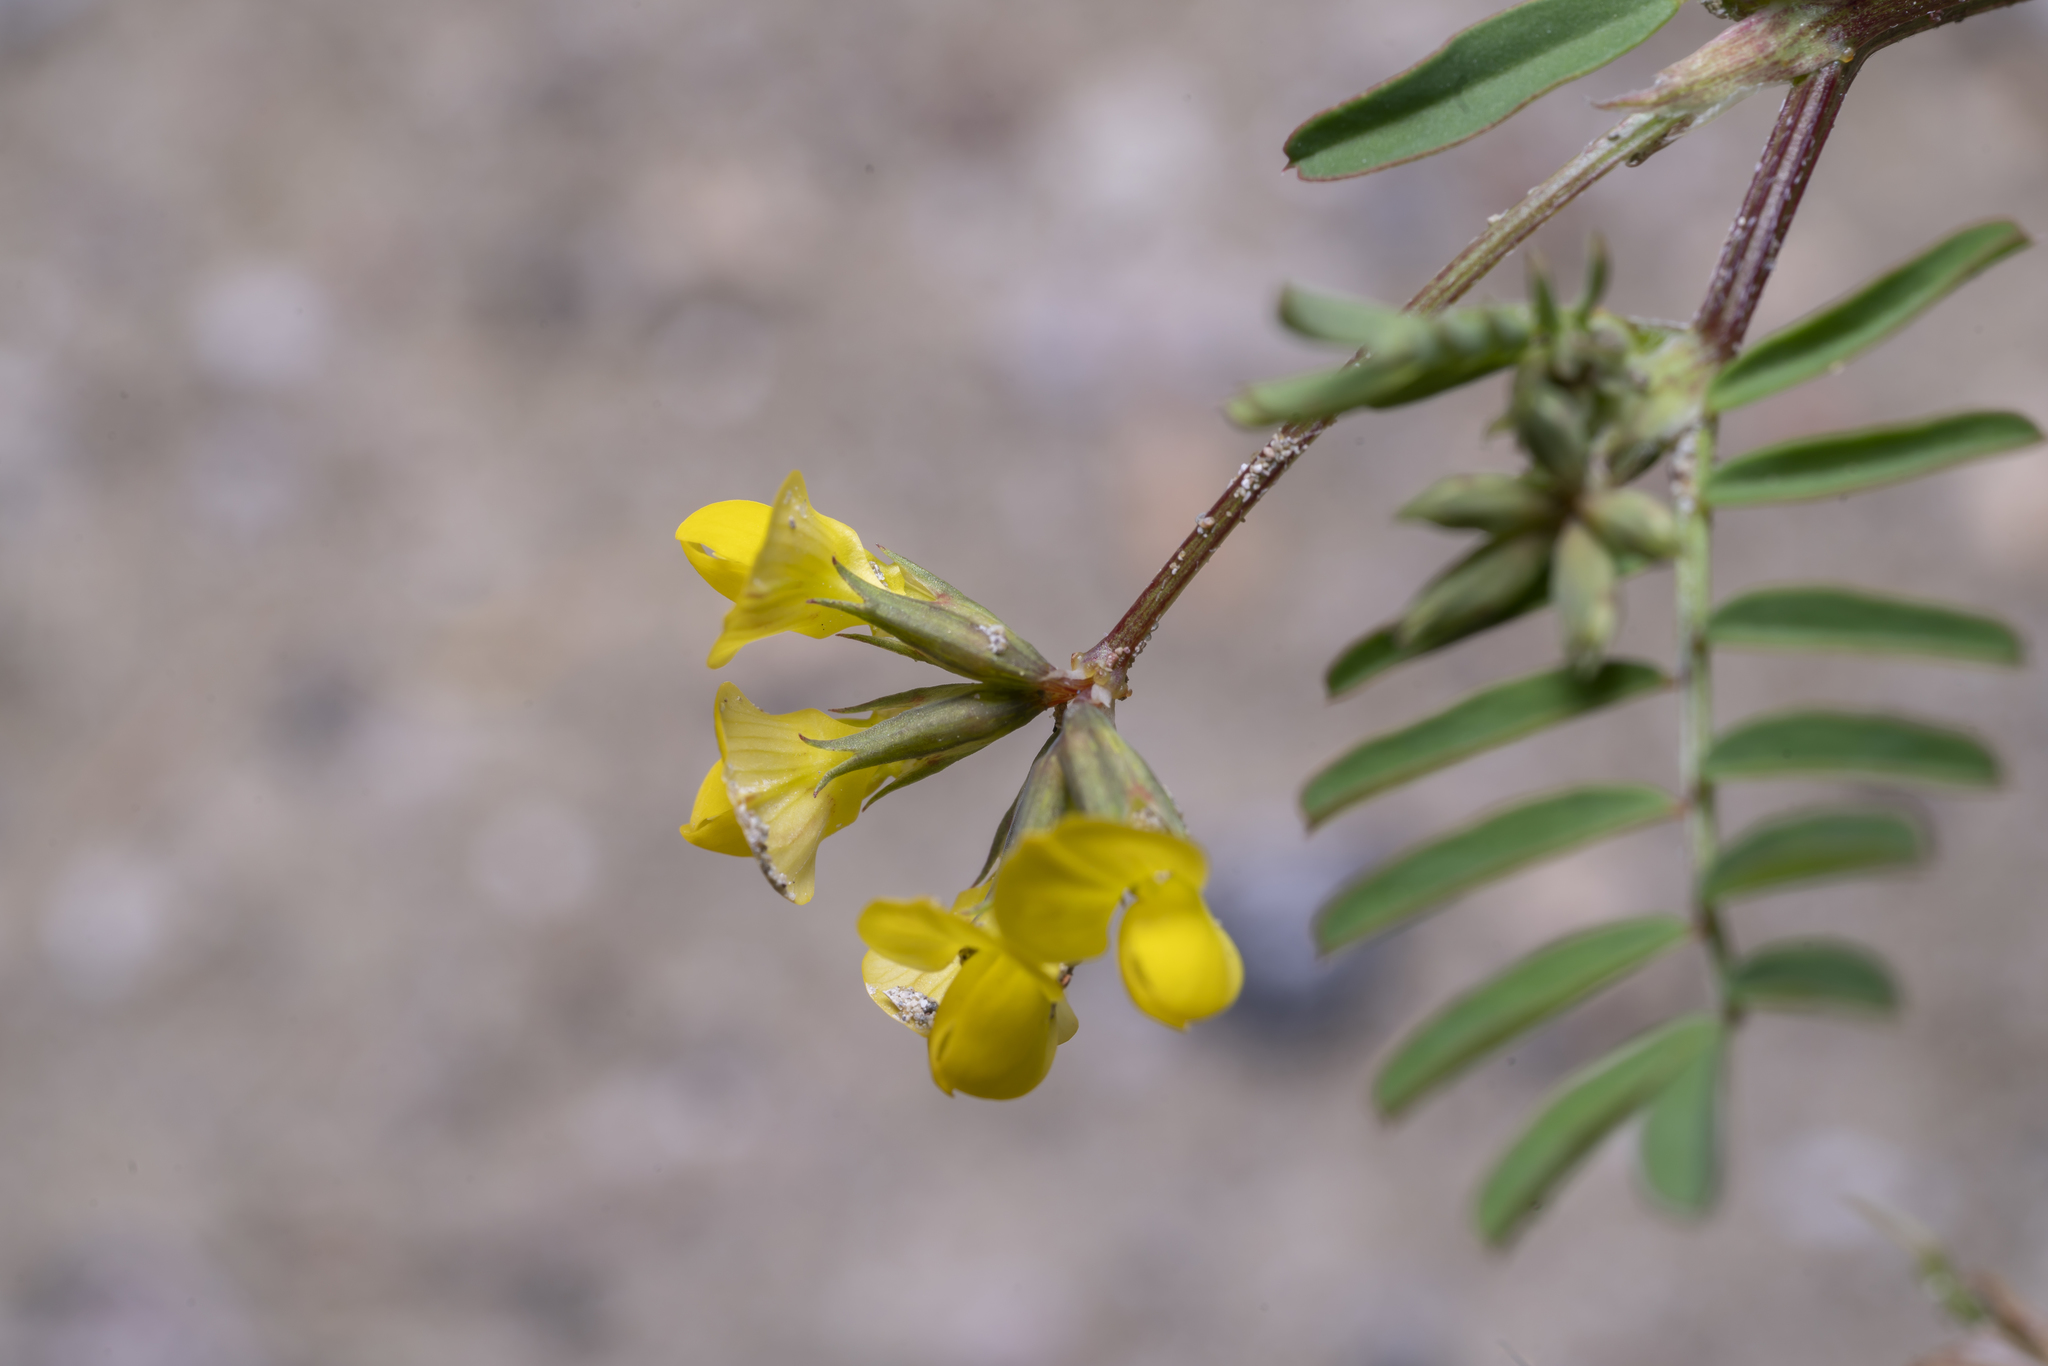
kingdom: Plantae
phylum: Tracheophyta
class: Magnoliopsida
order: Fabales
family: Fabaceae
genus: Hippocrepis
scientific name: Hippocrepis multisiliquosa
